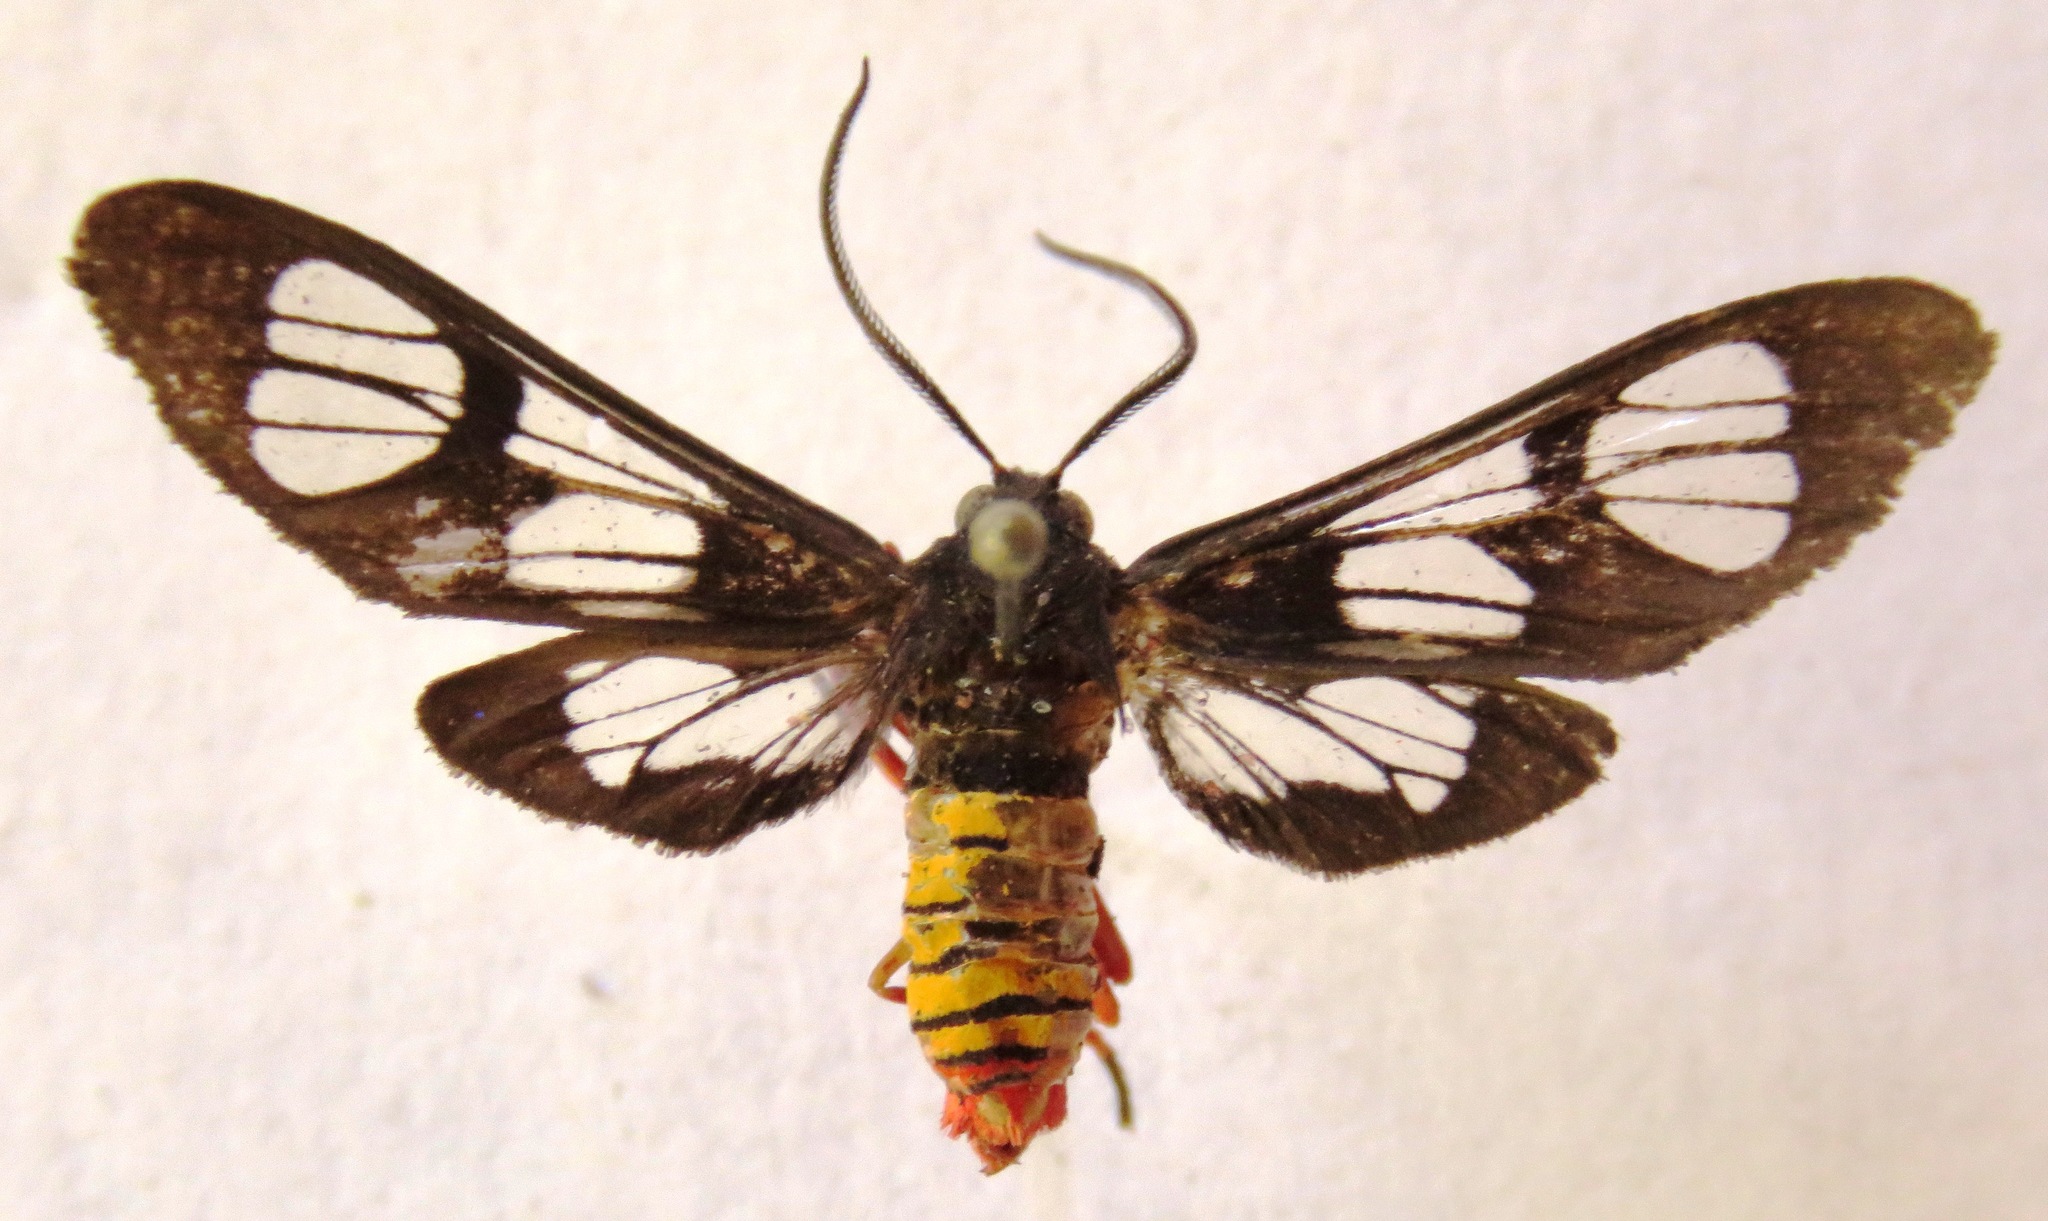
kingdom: Animalia
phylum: Arthropoda
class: Insecta
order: Lepidoptera
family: Erebidae
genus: Phoenicoprocta
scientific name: Phoenicoprocta mexicana
